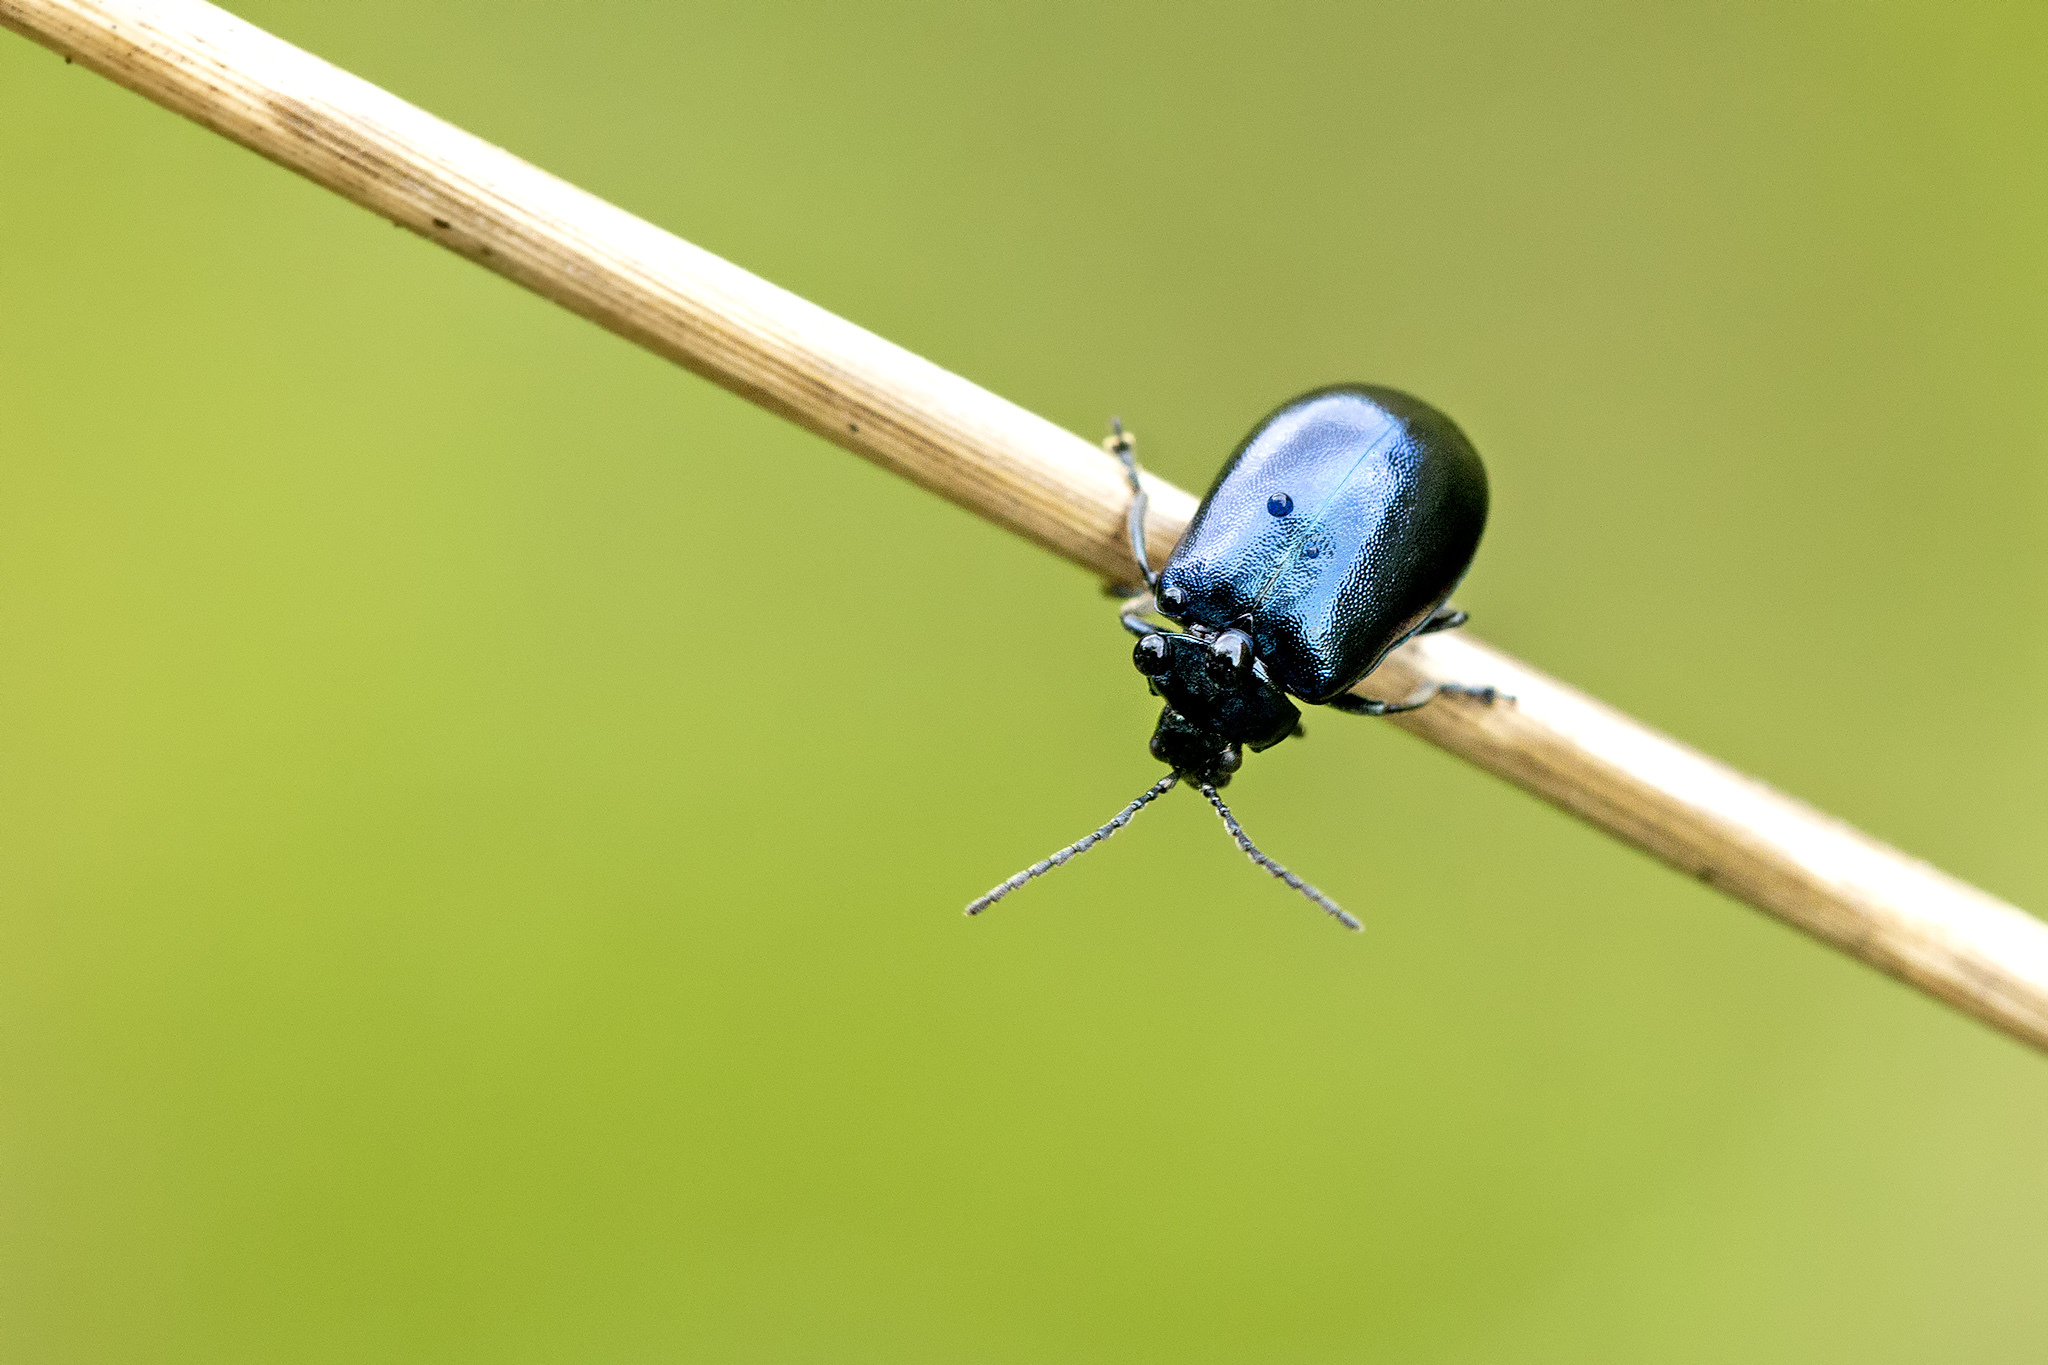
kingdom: Animalia
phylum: Arthropoda
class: Insecta
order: Coleoptera
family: Chrysomelidae
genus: Agelastica
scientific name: Agelastica alni
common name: Alder leaf beetle
